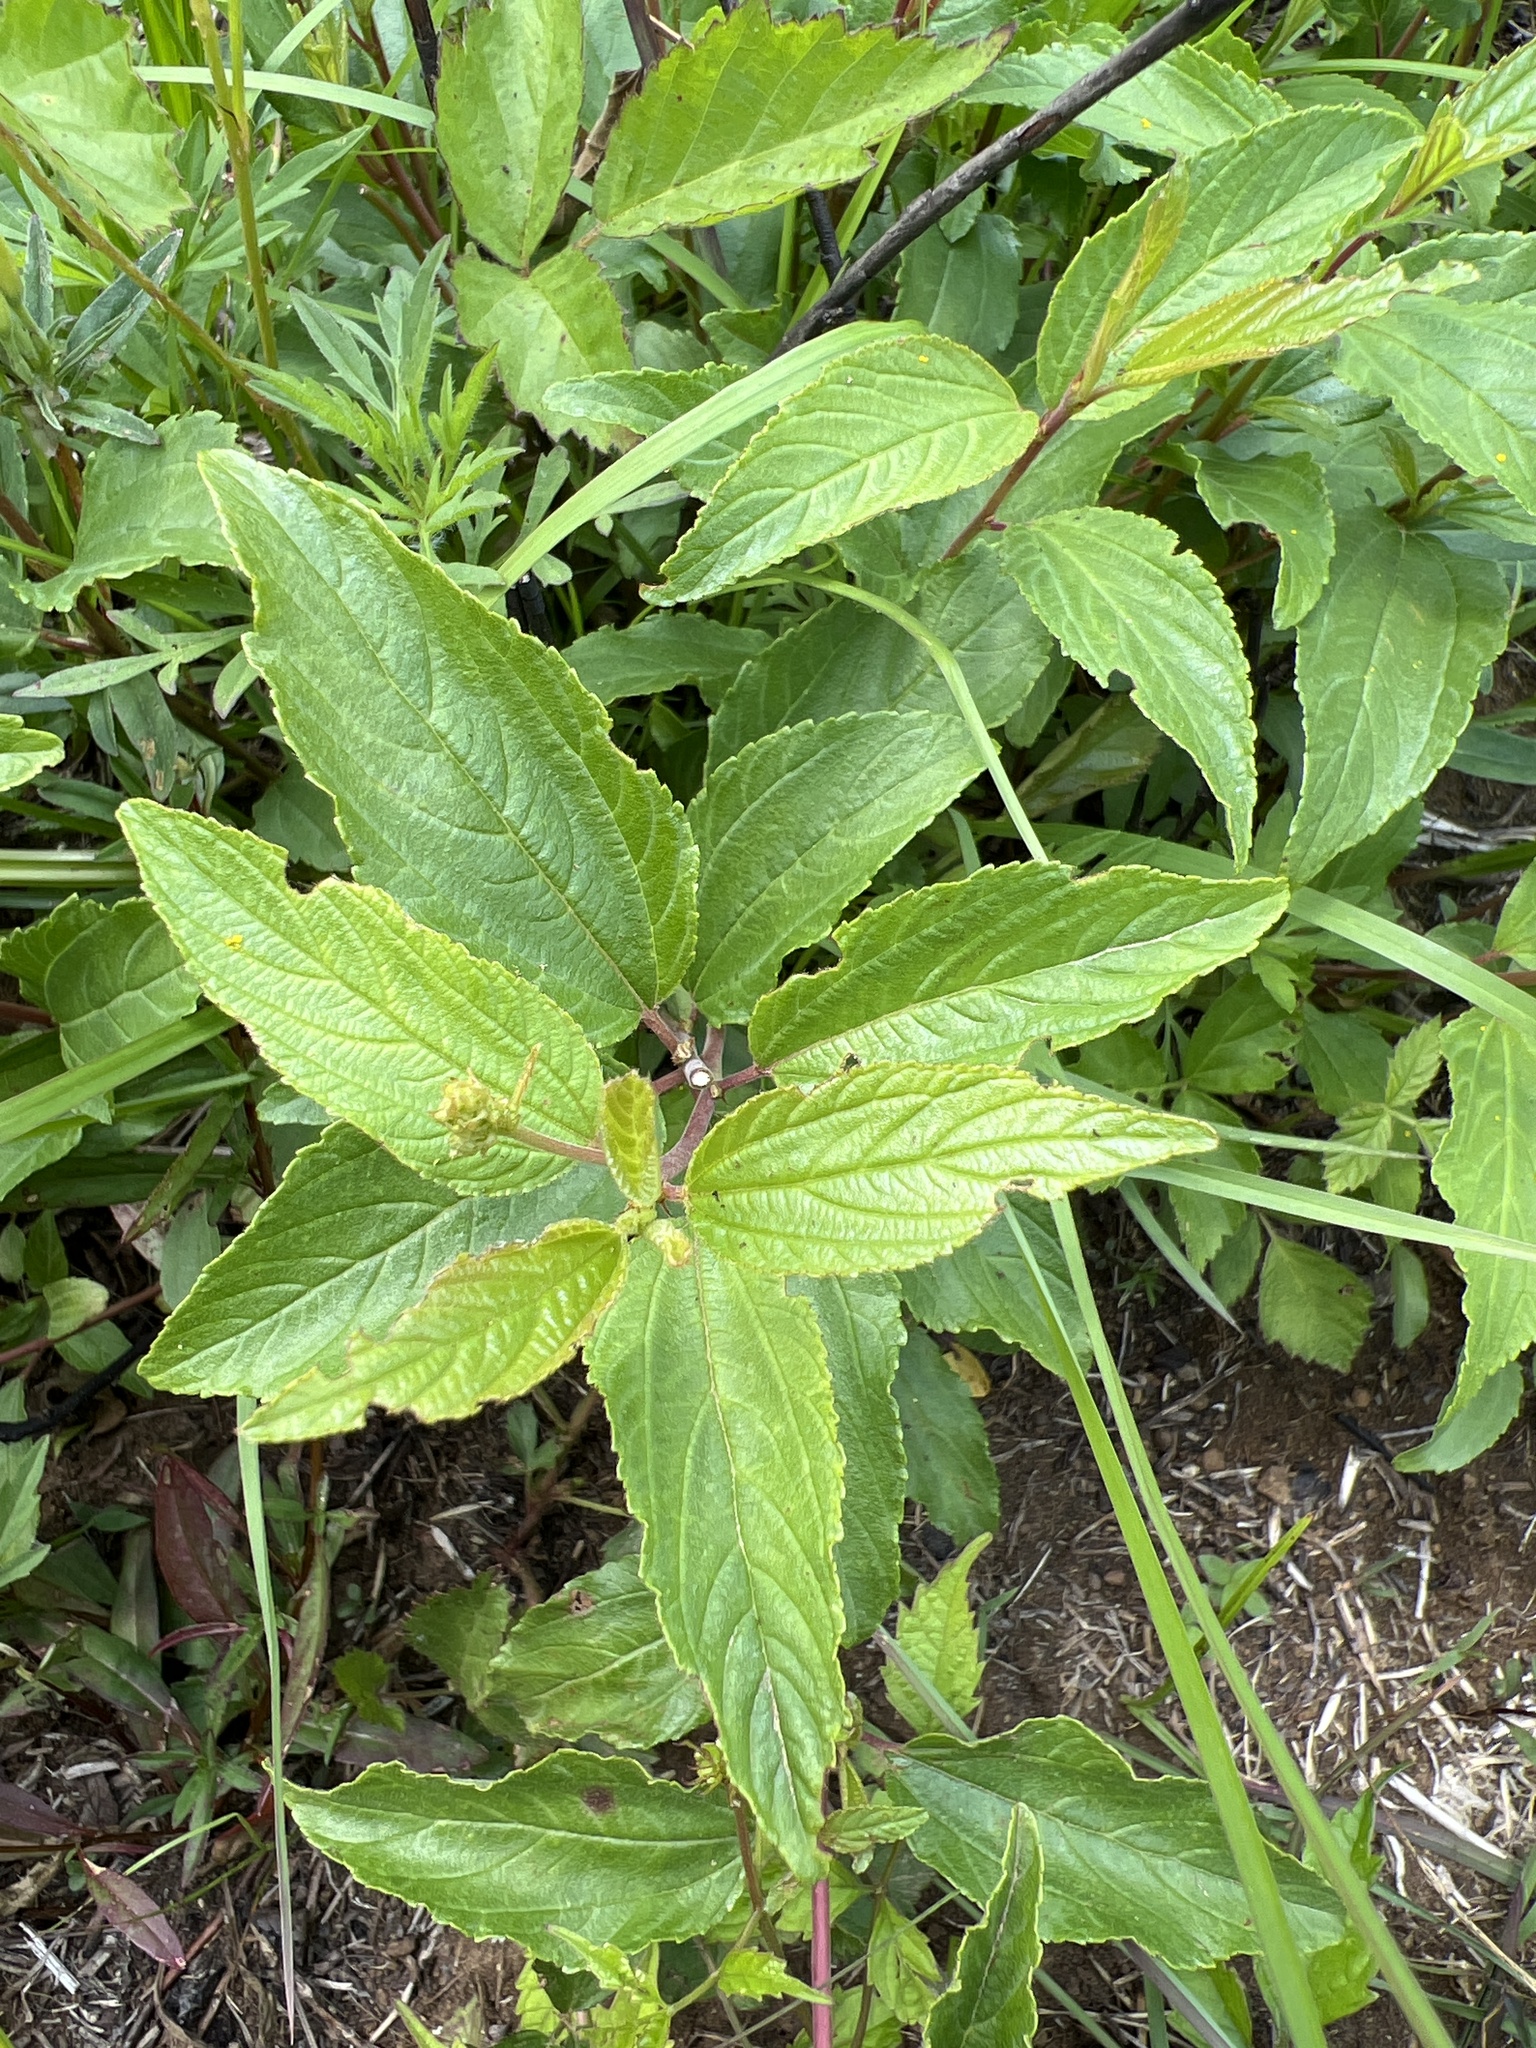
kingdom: Plantae
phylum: Tracheophyta
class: Magnoliopsida
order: Rosales
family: Rhamnaceae
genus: Ceanothus
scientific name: Ceanothus americanus
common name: Redroot
